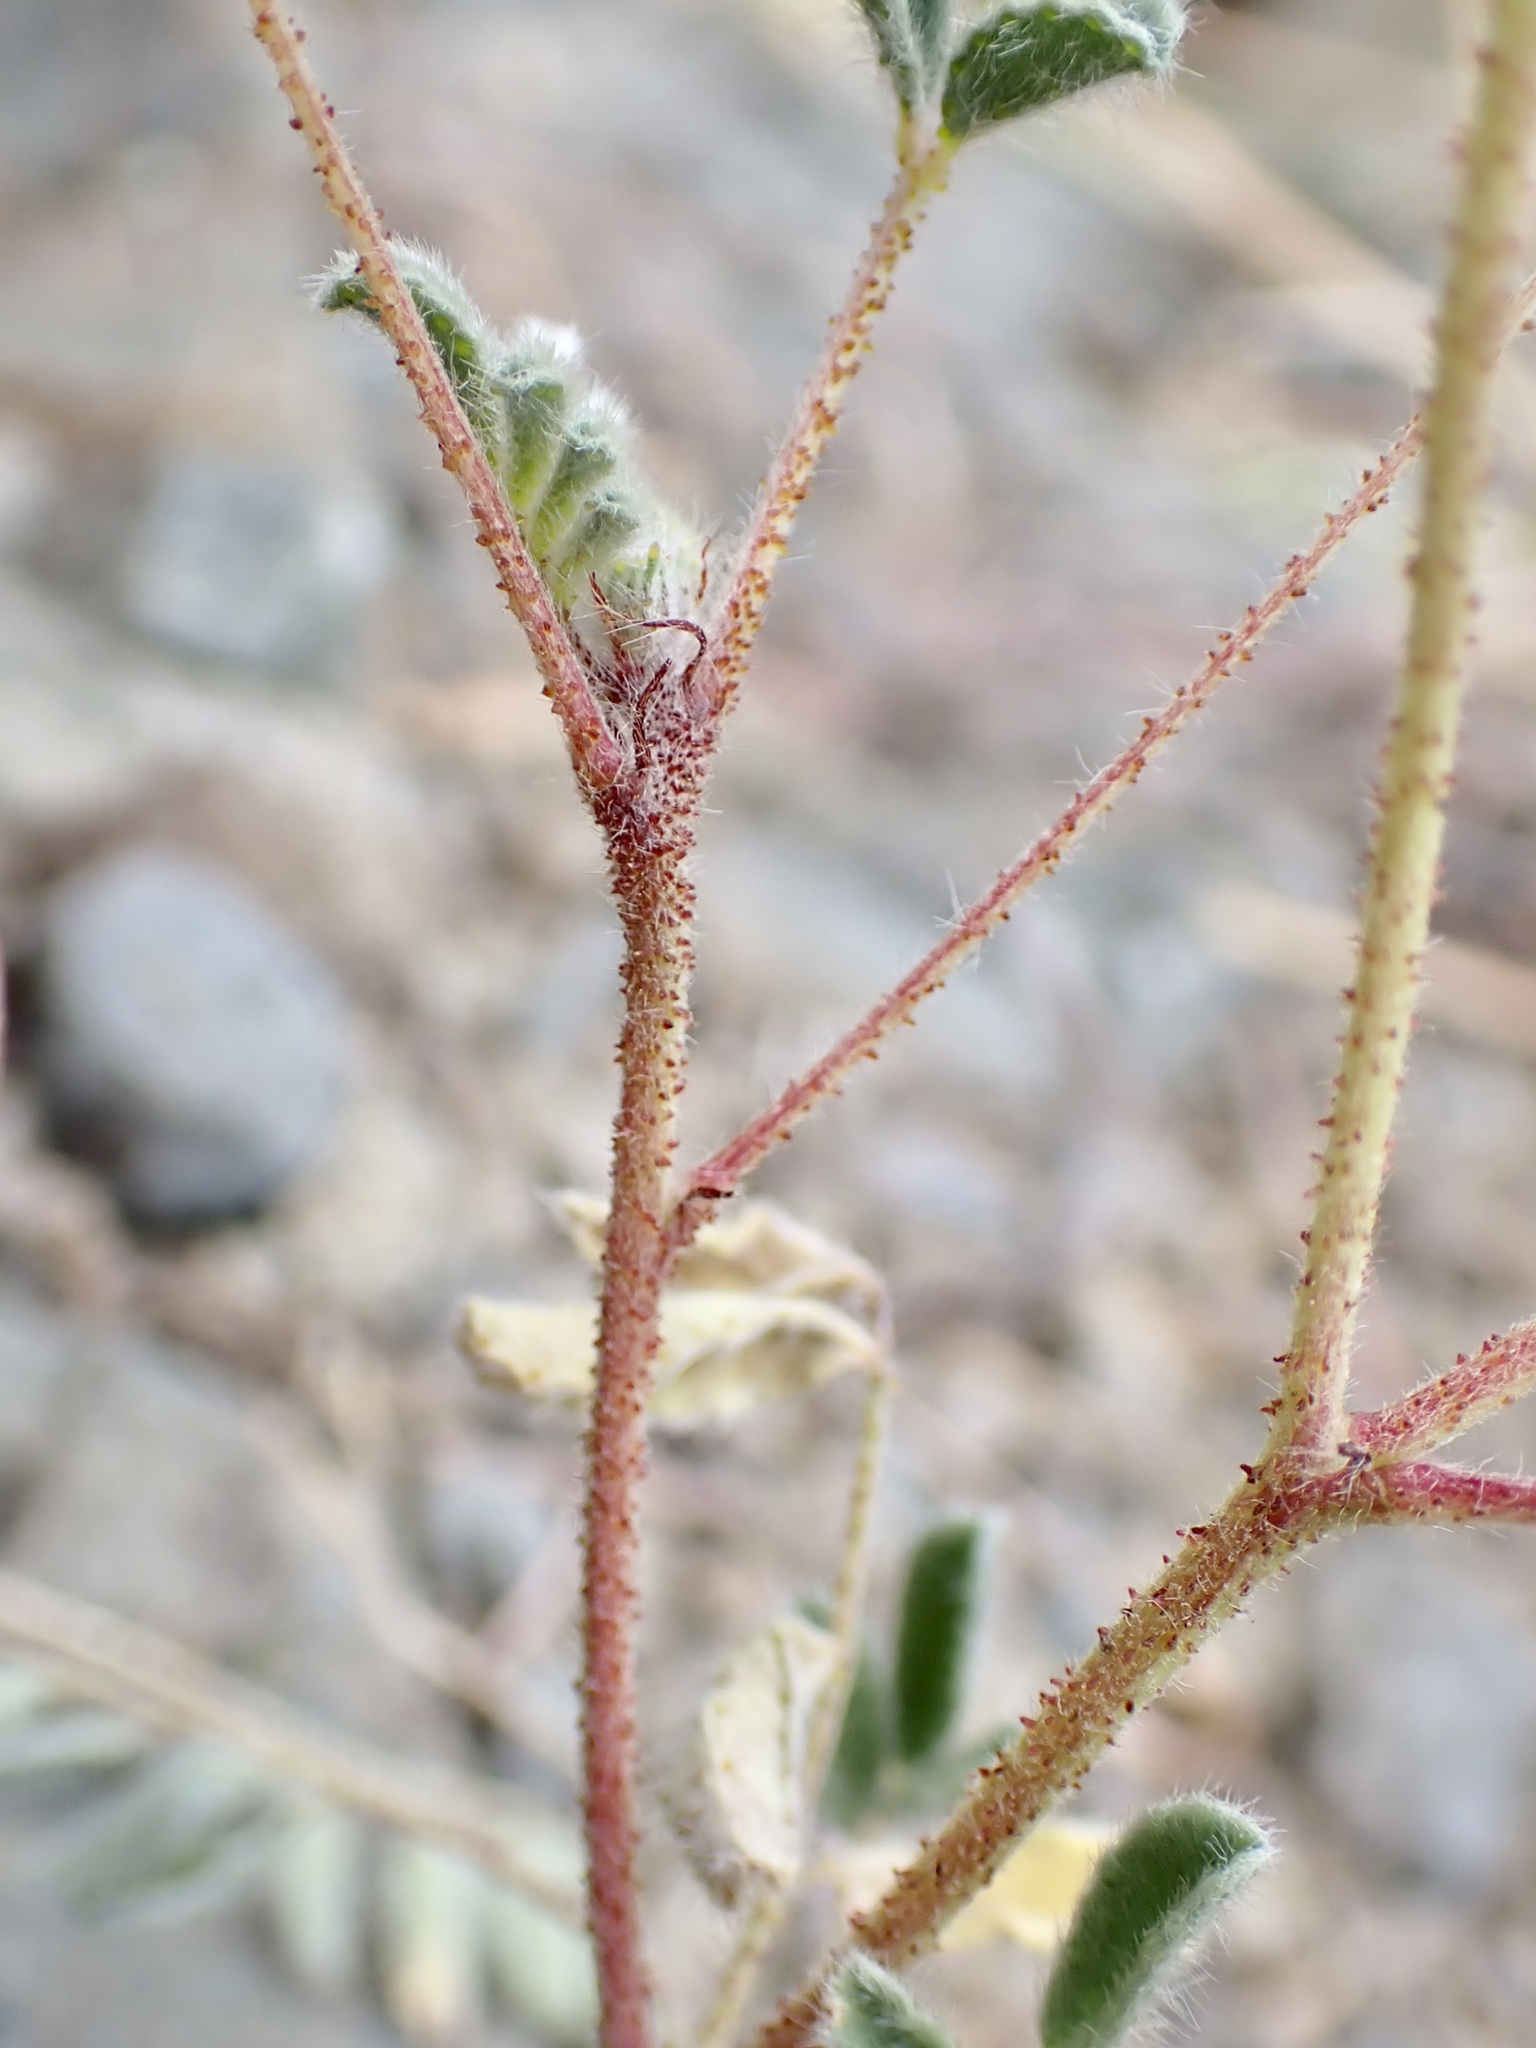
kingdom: Plantae
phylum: Tracheophyta
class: Magnoliopsida
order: Fabales
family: Fabaceae
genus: Dalea
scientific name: Dalea lachnostachys
